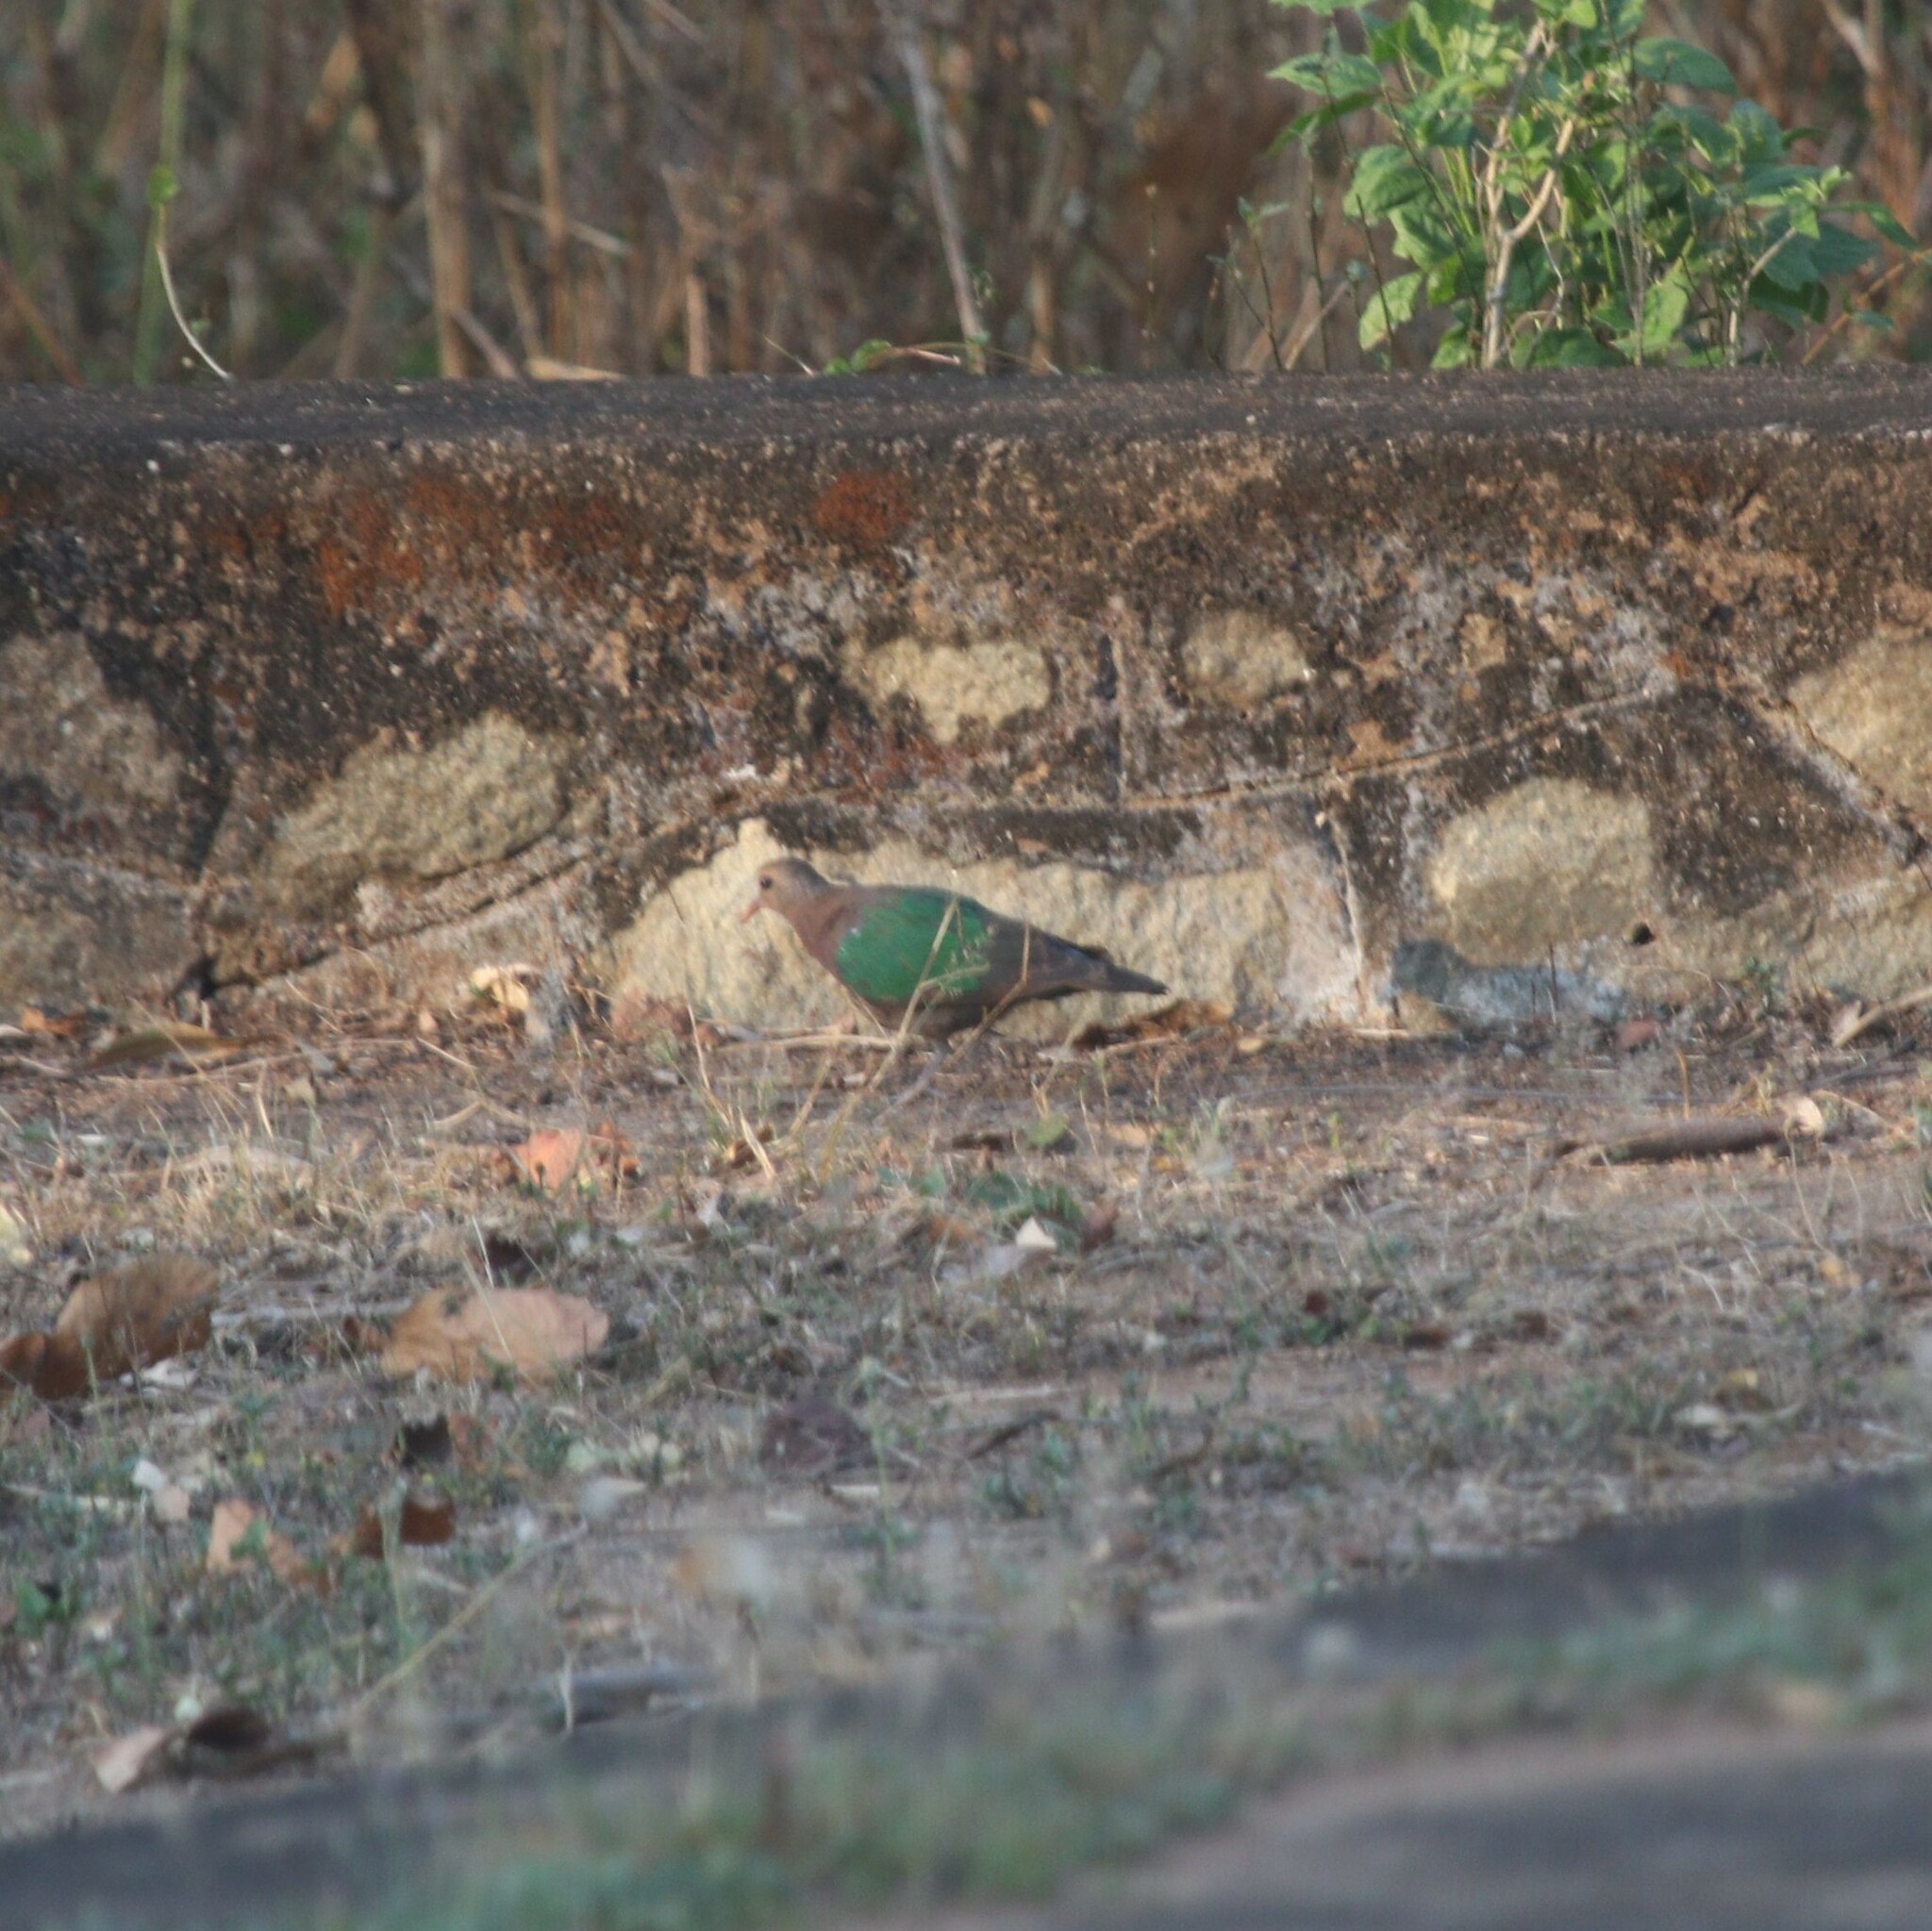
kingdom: Animalia
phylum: Chordata
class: Aves
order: Columbiformes
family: Columbidae
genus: Chalcophaps
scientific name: Chalcophaps indica
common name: Common emerald dove
